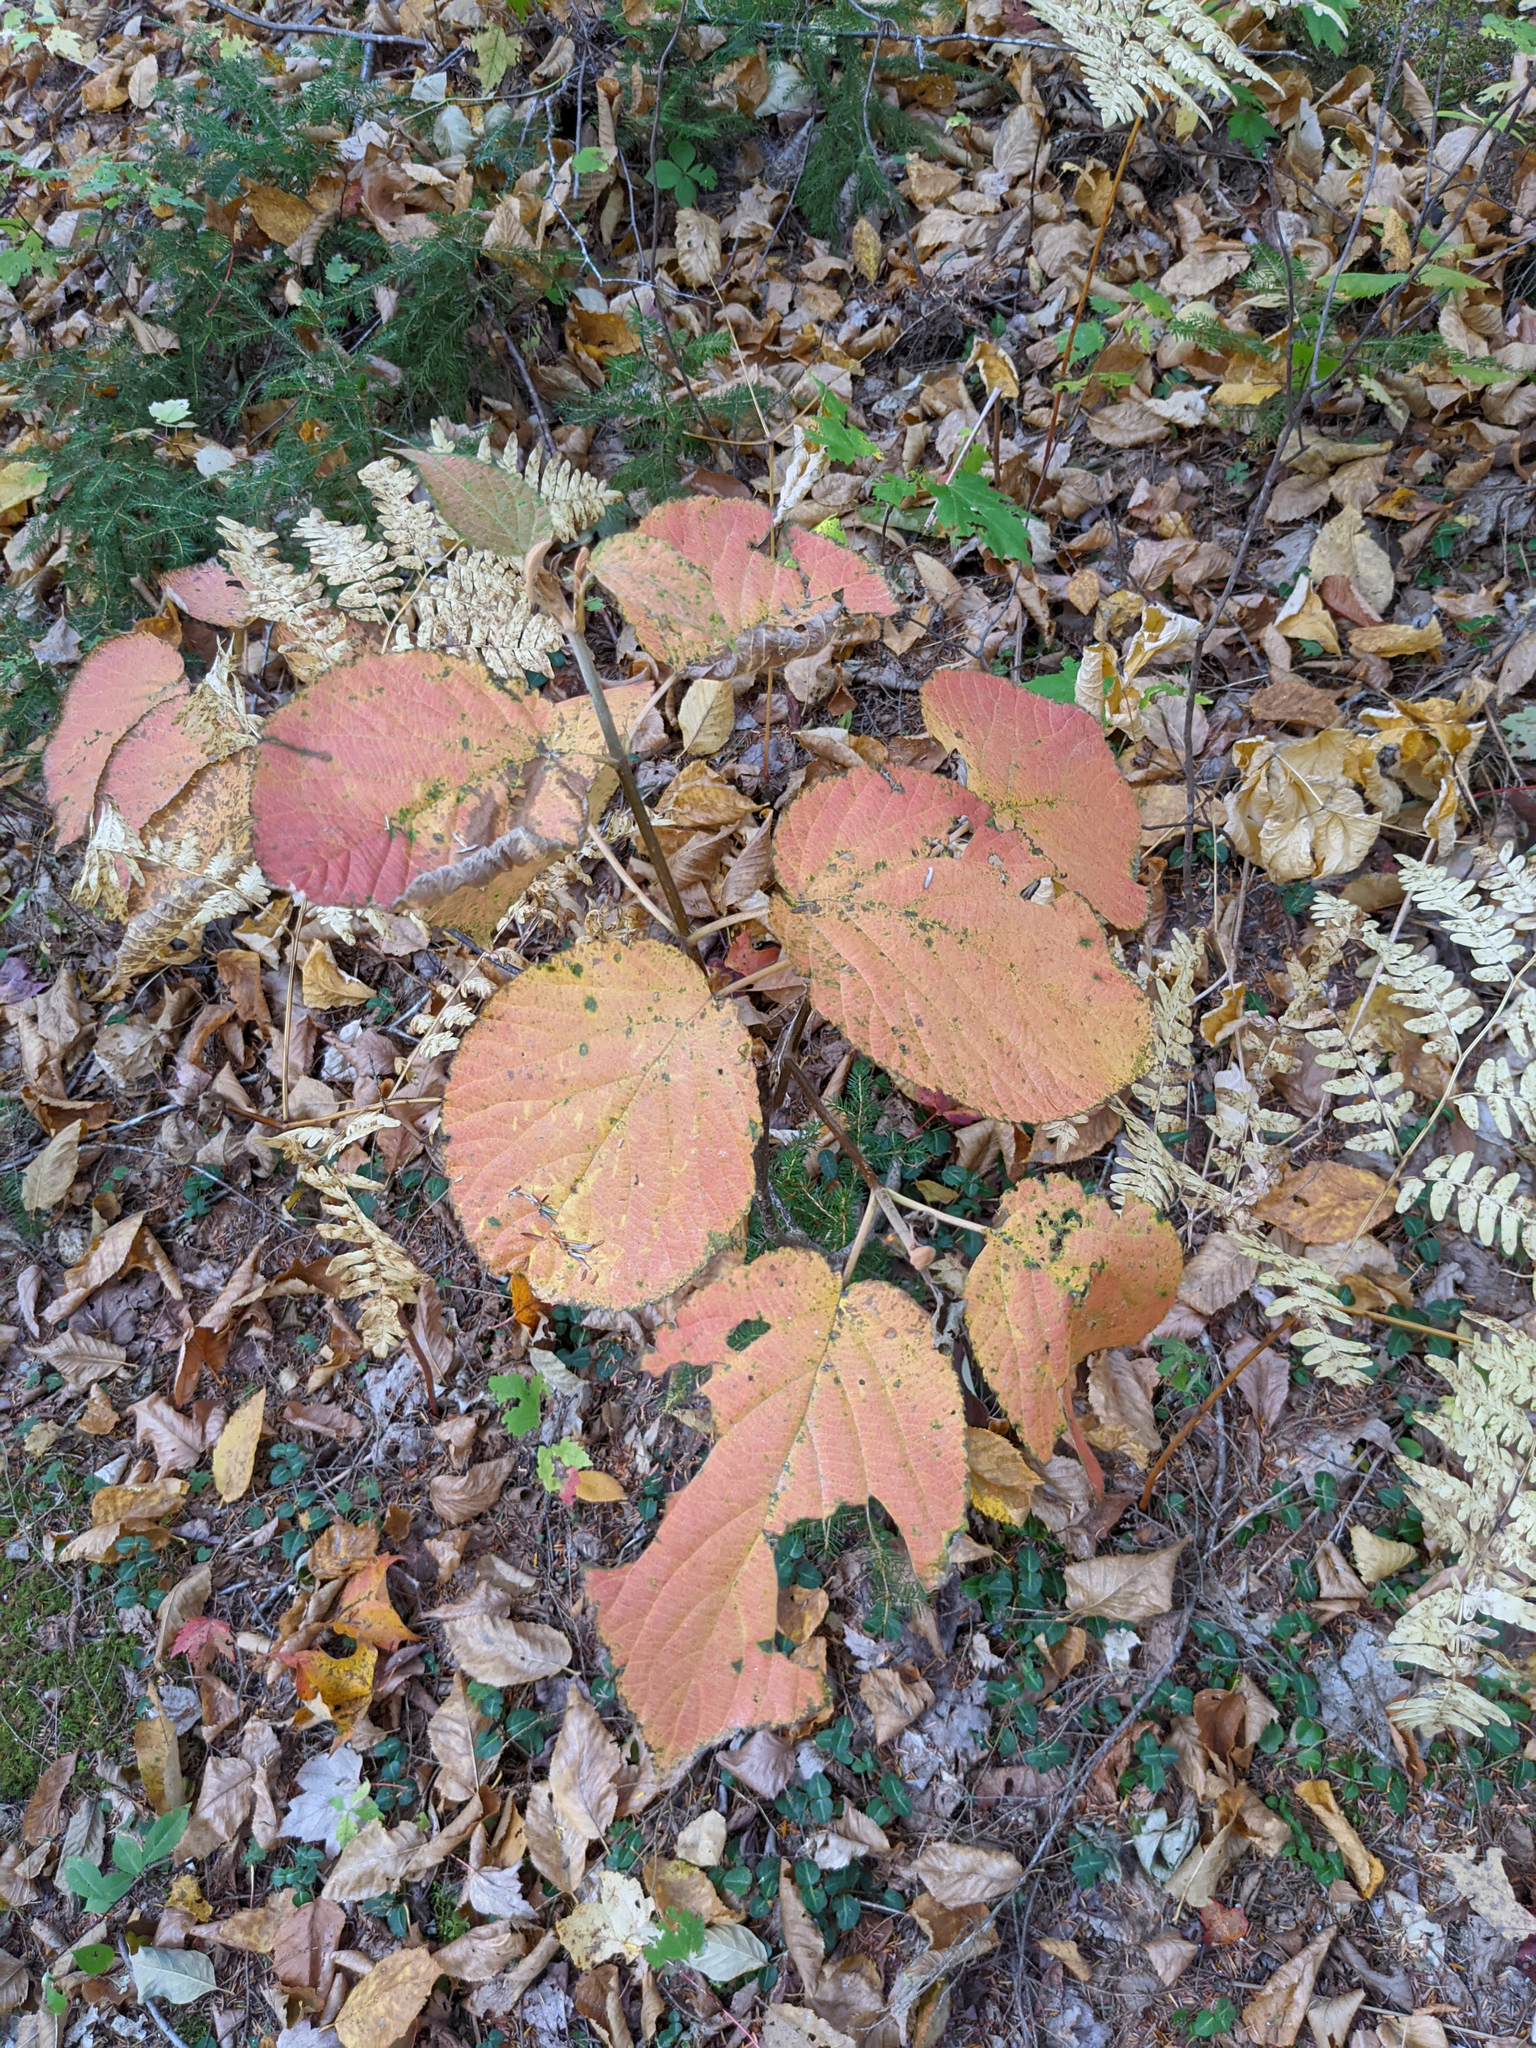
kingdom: Plantae
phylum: Tracheophyta
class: Magnoliopsida
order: Dipsacales
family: Viburnaceae
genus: Viburnum
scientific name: Viburnum lantanoides
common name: Hobblebush
